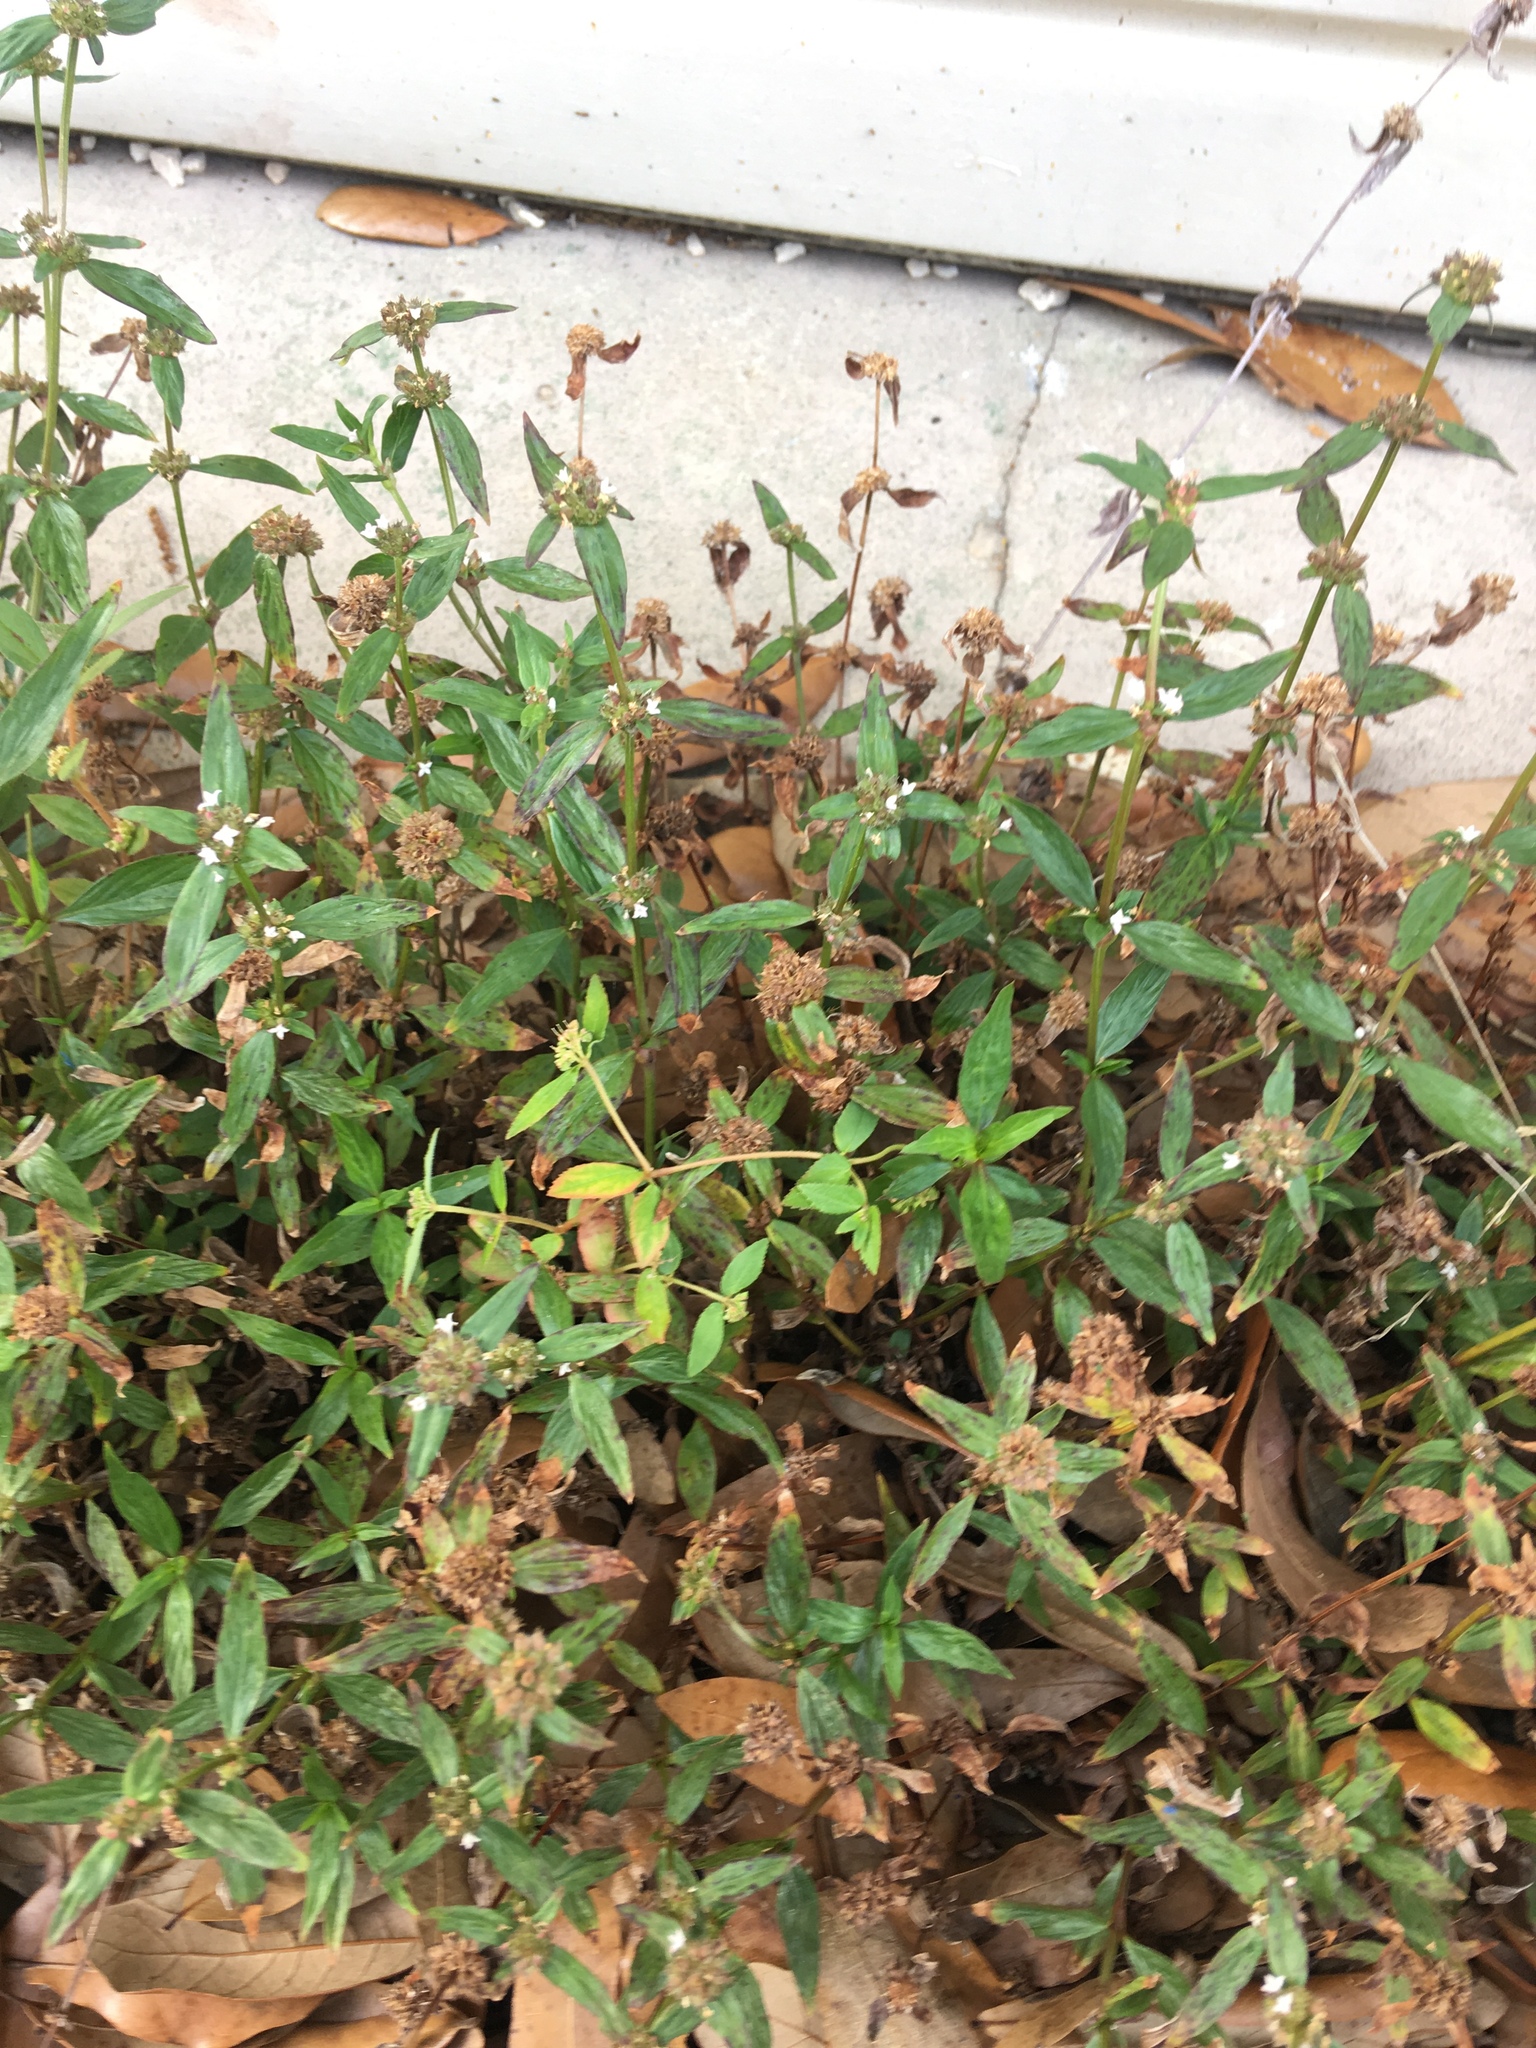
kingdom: Plantae
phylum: Tracheophyta
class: Magnoliopsida
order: Gentianales
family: Rubiaceae
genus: Spermacoce
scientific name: Spermacoce remota
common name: Woodland false buttonweed
